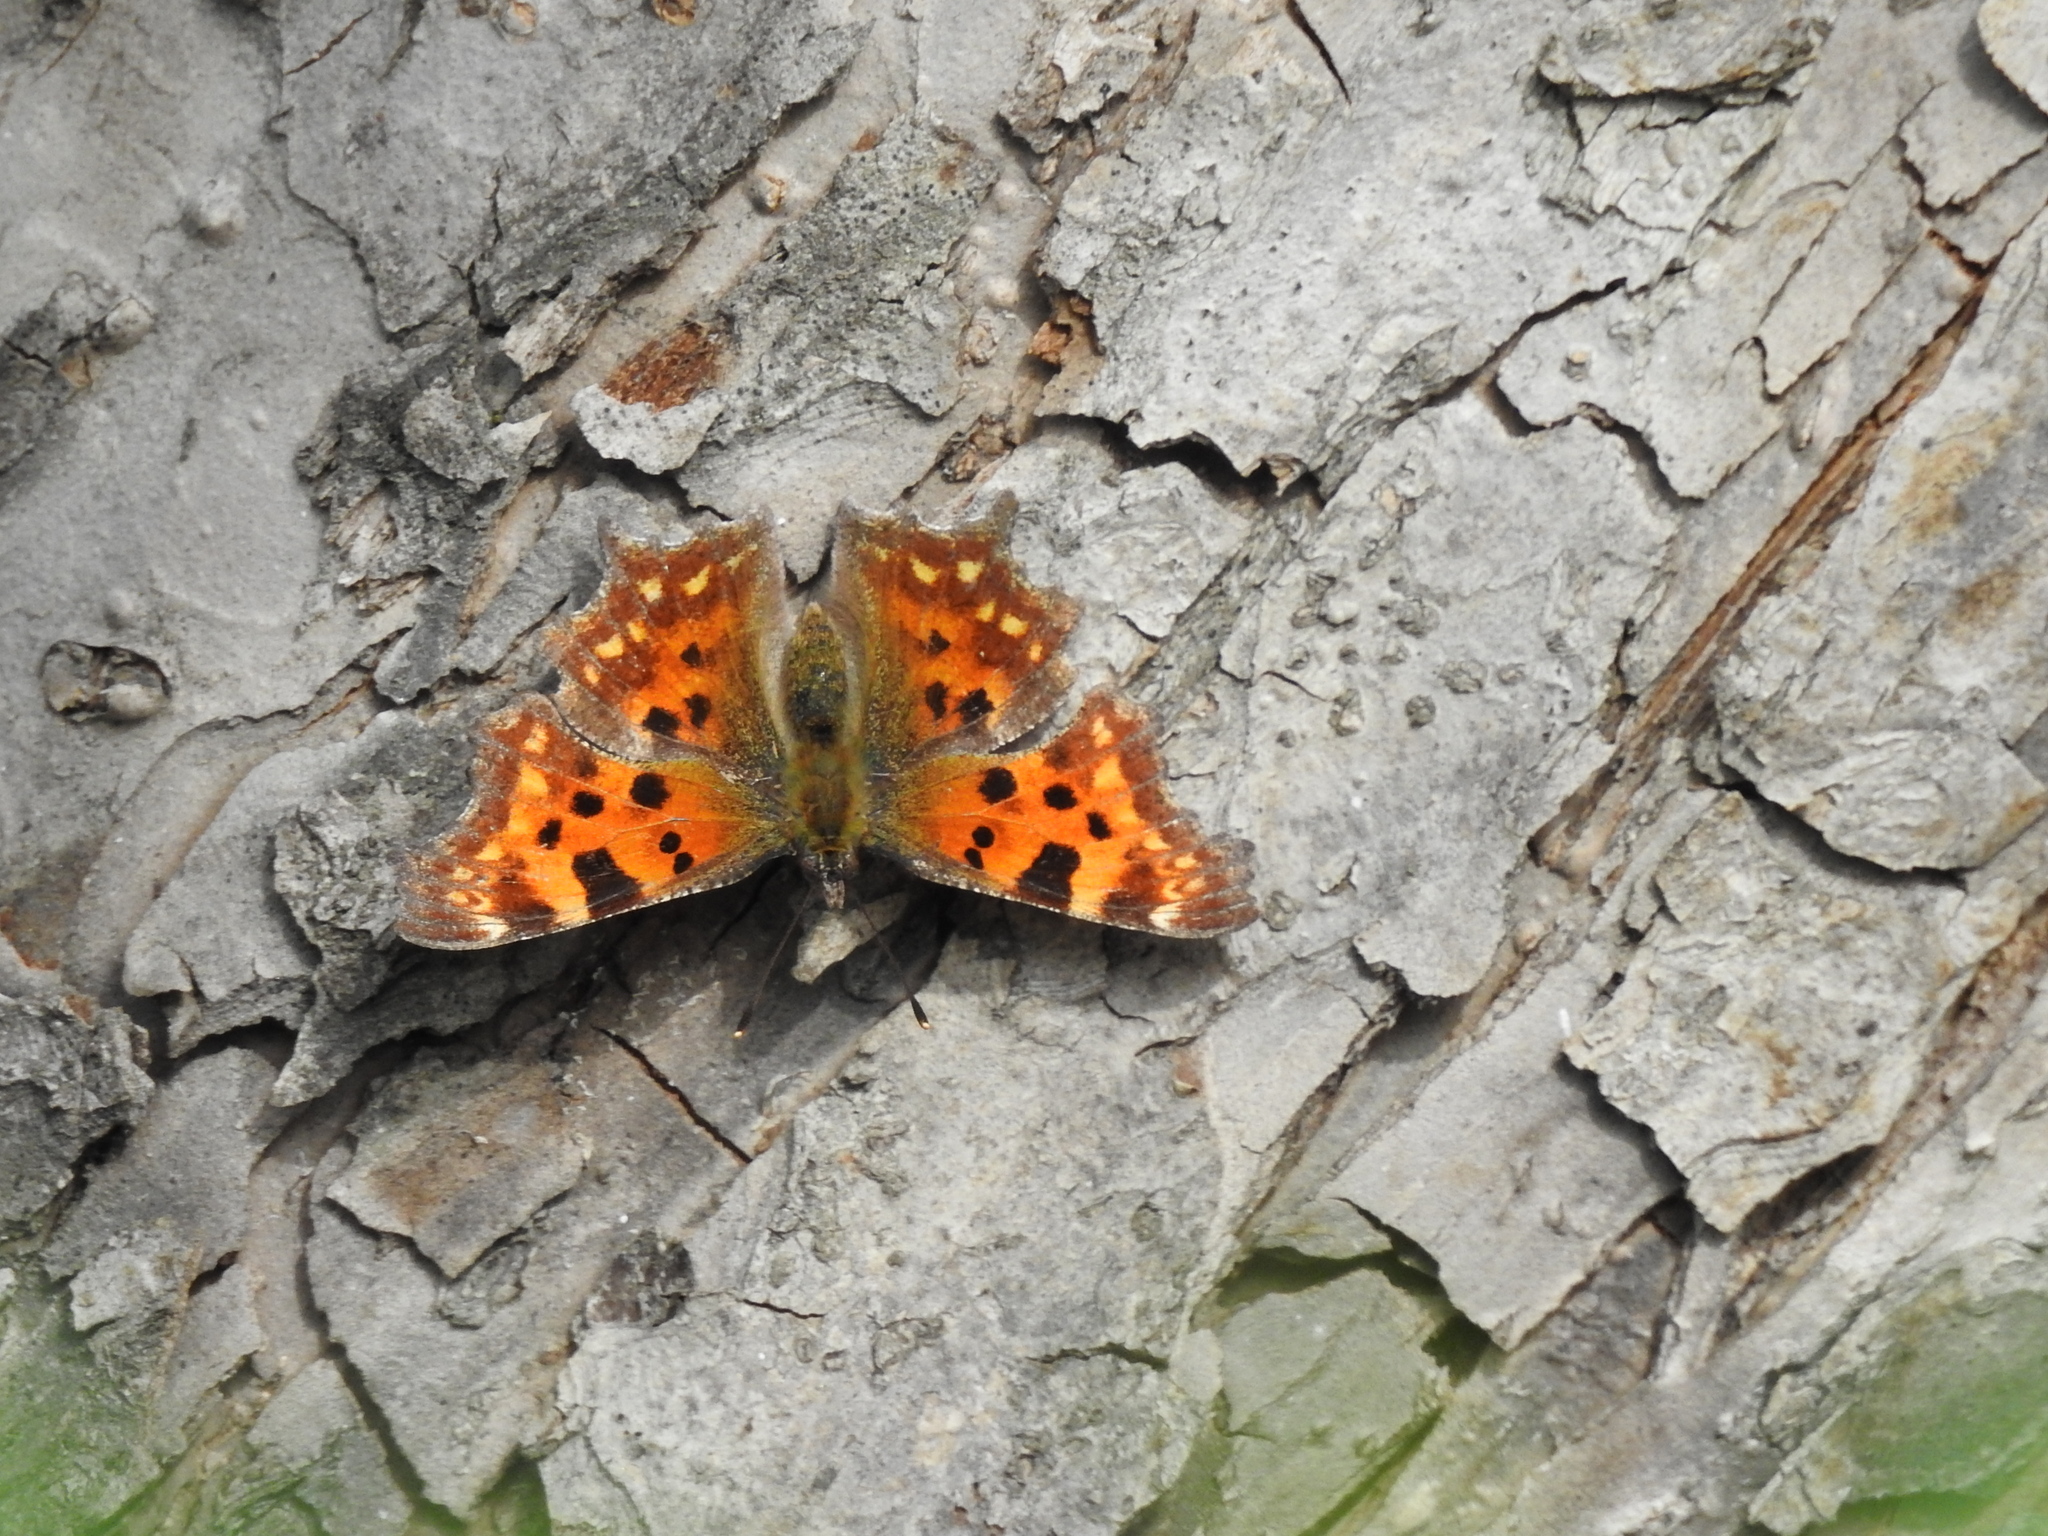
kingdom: Animalia
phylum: Arthropoda
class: Insecta
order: Lepidoptera
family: Nymphalidae
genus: Polygonia
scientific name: Polygonia c-album
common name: Comma
